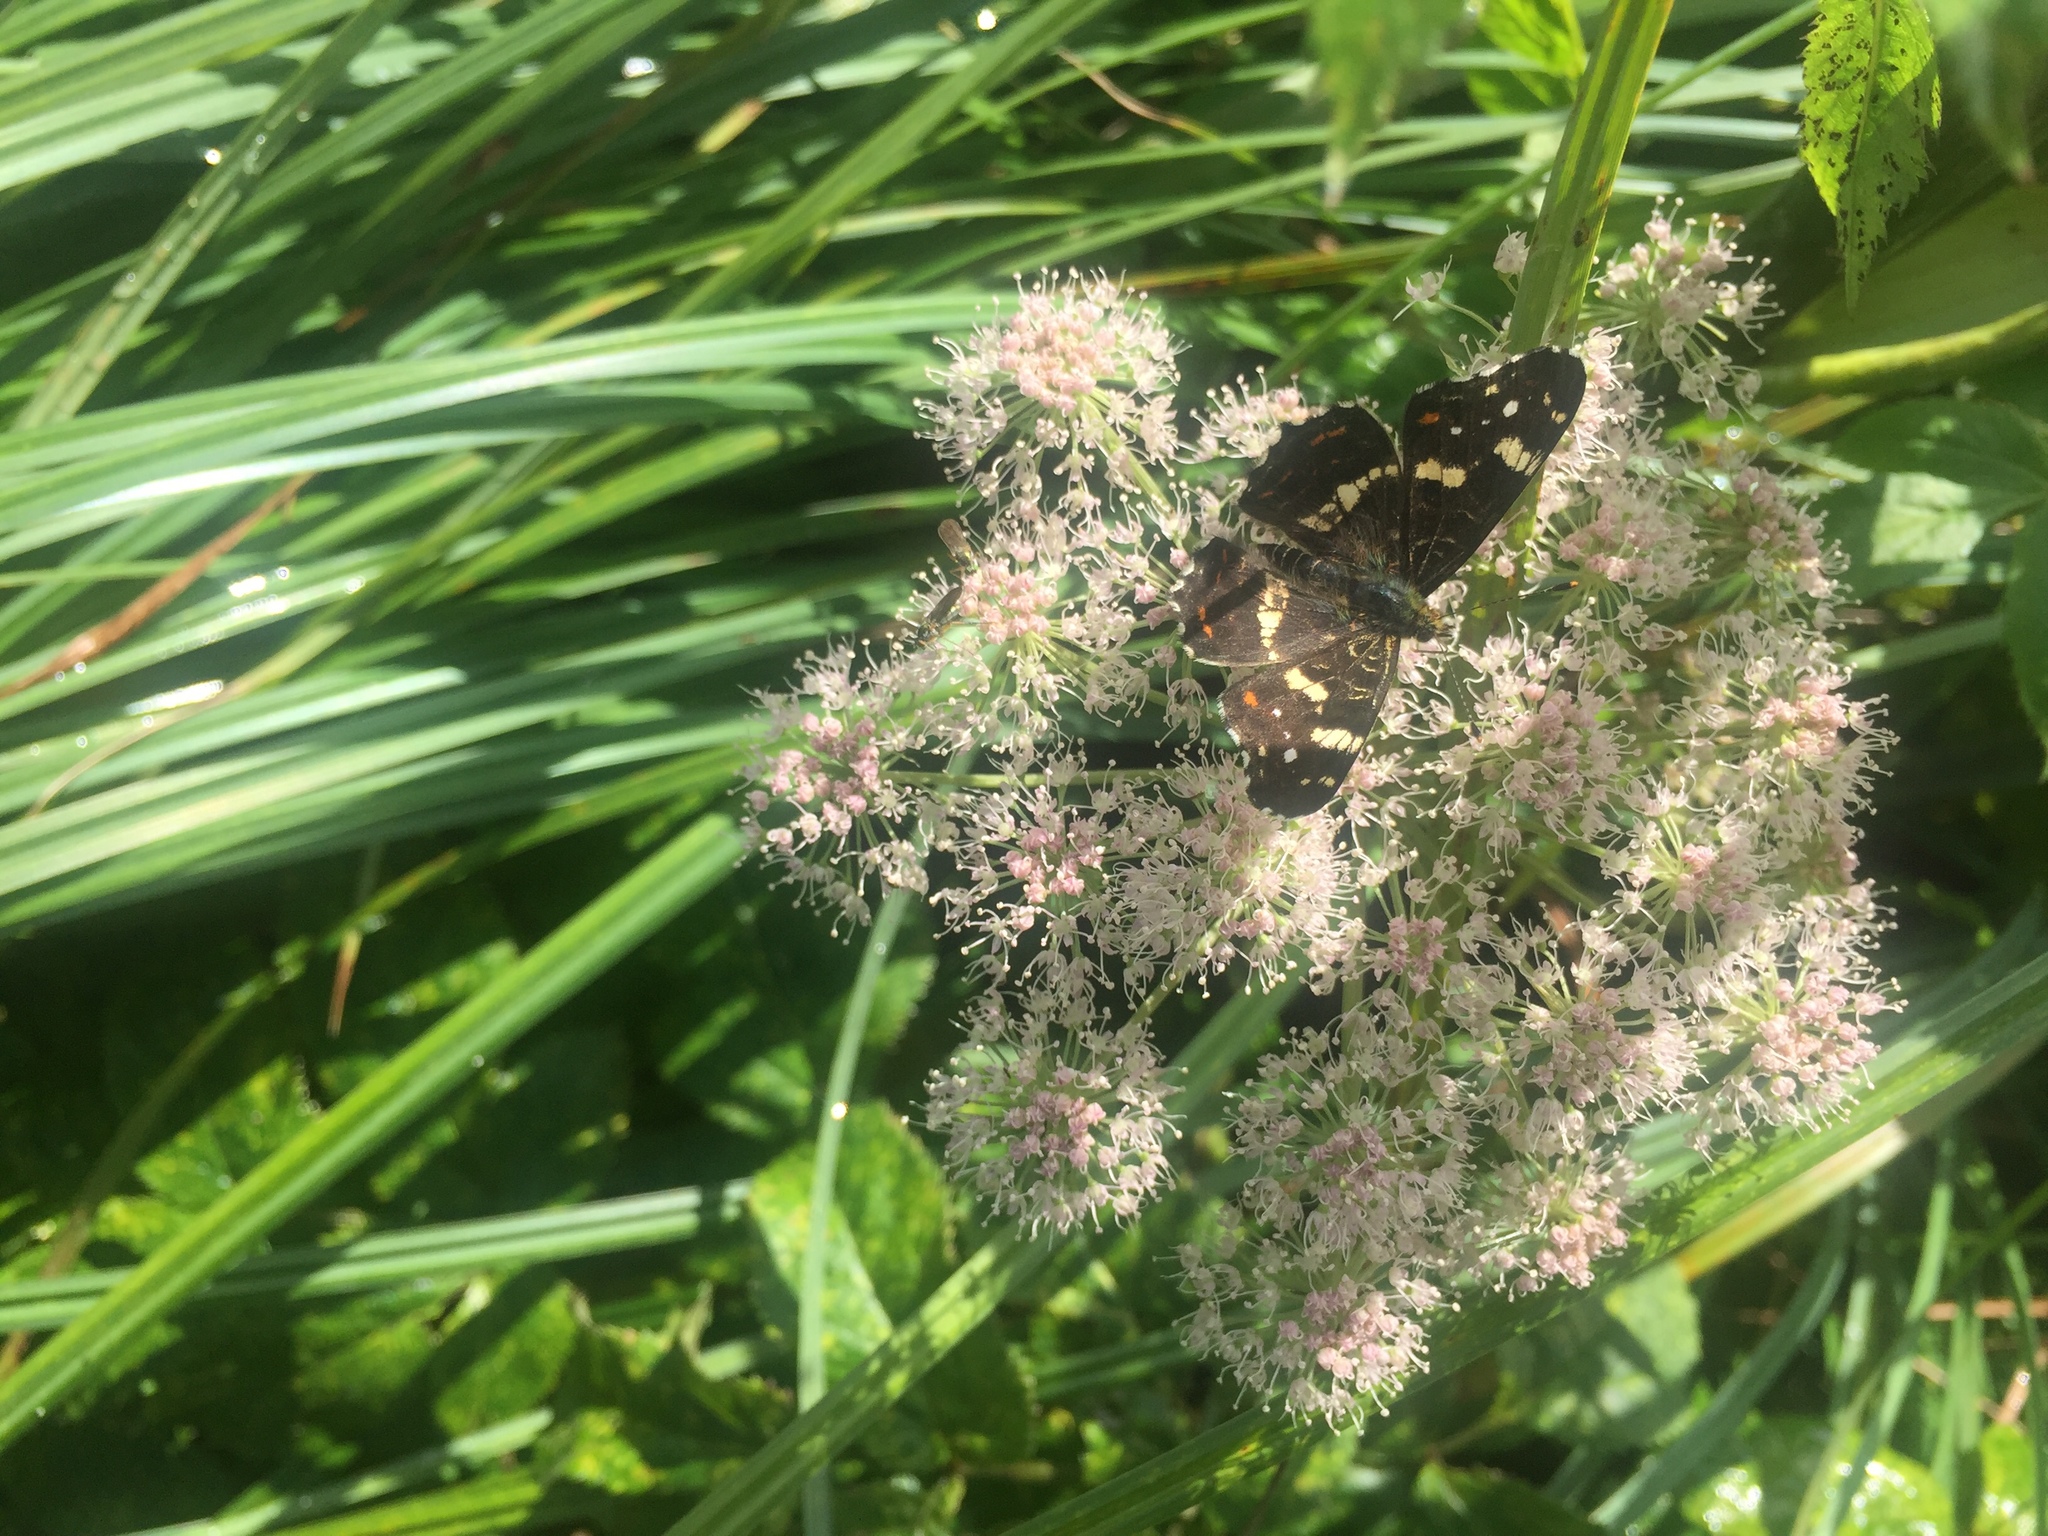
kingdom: Animalia
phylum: Arthropoda
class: Insecta
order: Lepidoptera
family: Nymphalidae
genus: Araschnia
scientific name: Araschnia levana
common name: Map butterfly
